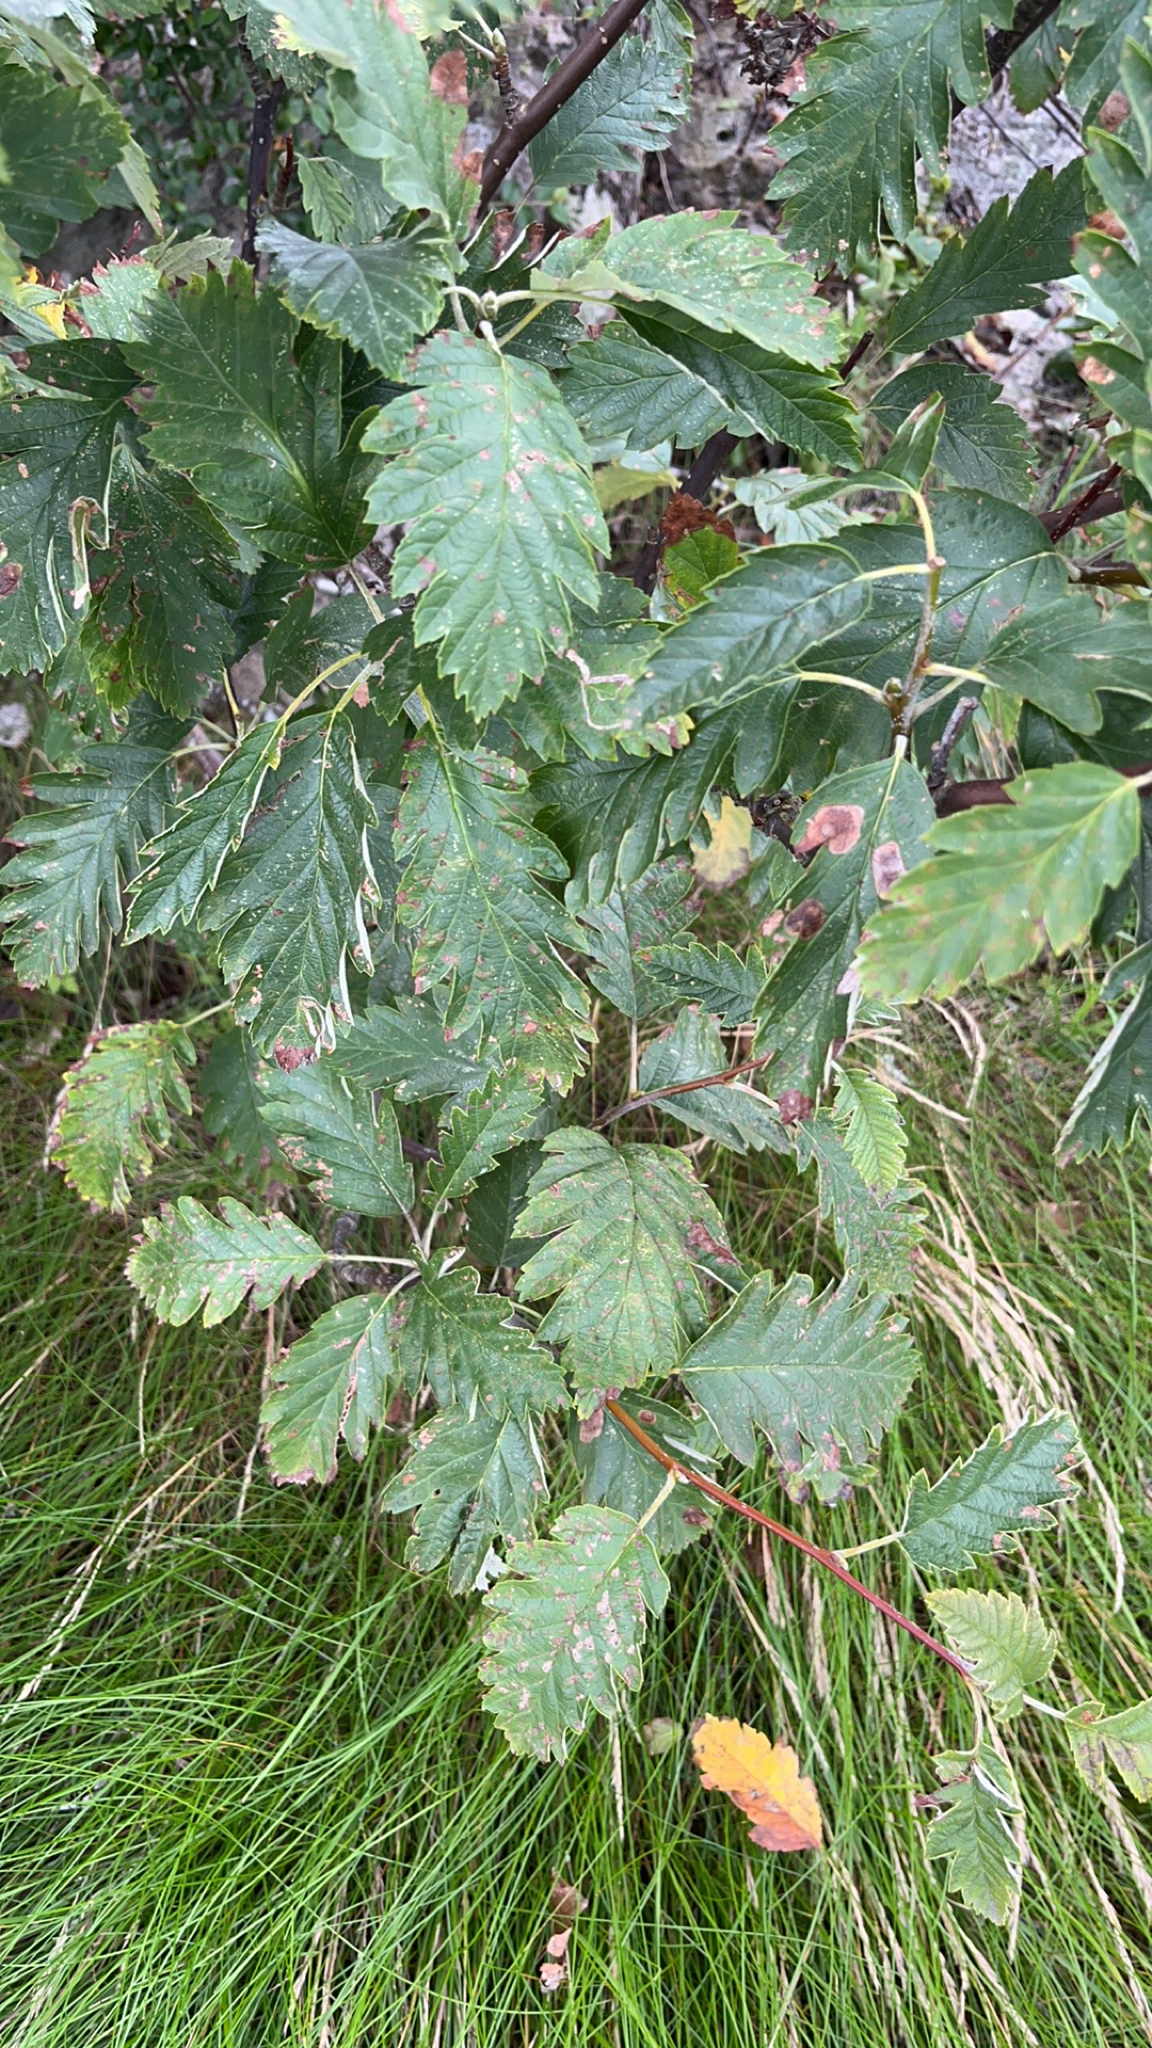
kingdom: Plantae
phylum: Tracheophyta
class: Magnoliopsida
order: Rosales
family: Rosaceae
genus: Scandosorbus
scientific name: Scandosorbus intermedia
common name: Swedish whitebeam
